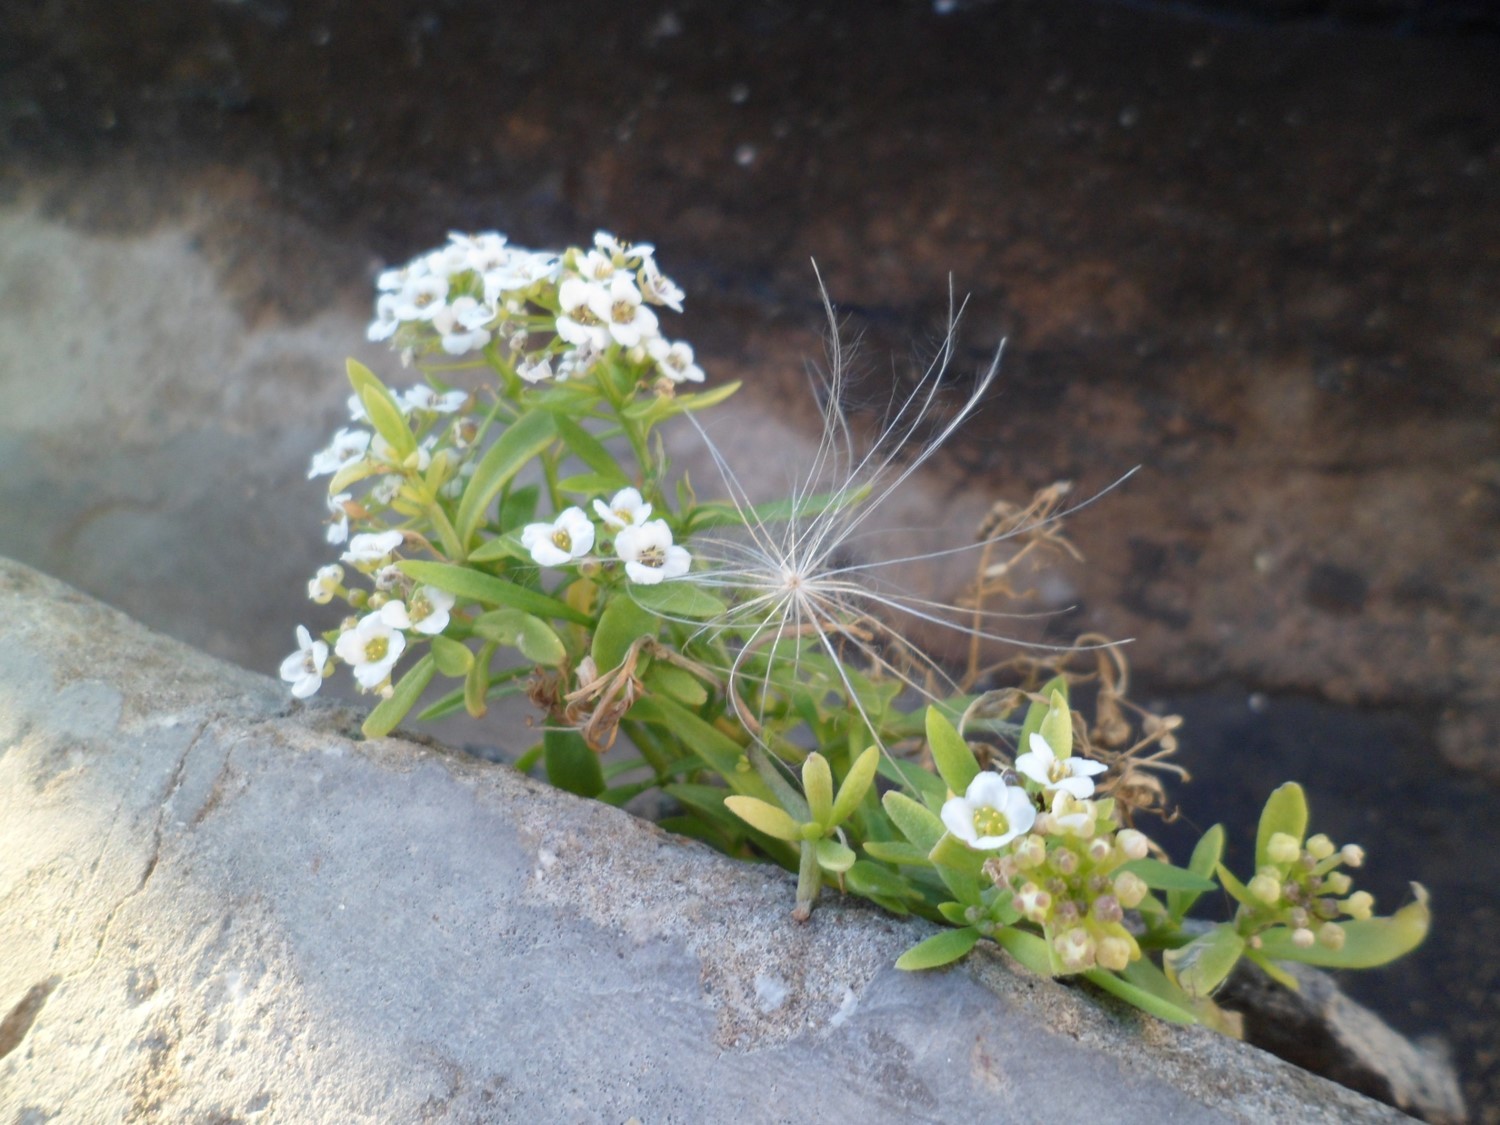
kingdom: Plantae
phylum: Tracheophyta
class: Magnoliopsida
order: Brassicales
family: Brassicaceae
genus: Lobularia
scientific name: Lobularia maritima
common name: Sweet alison
